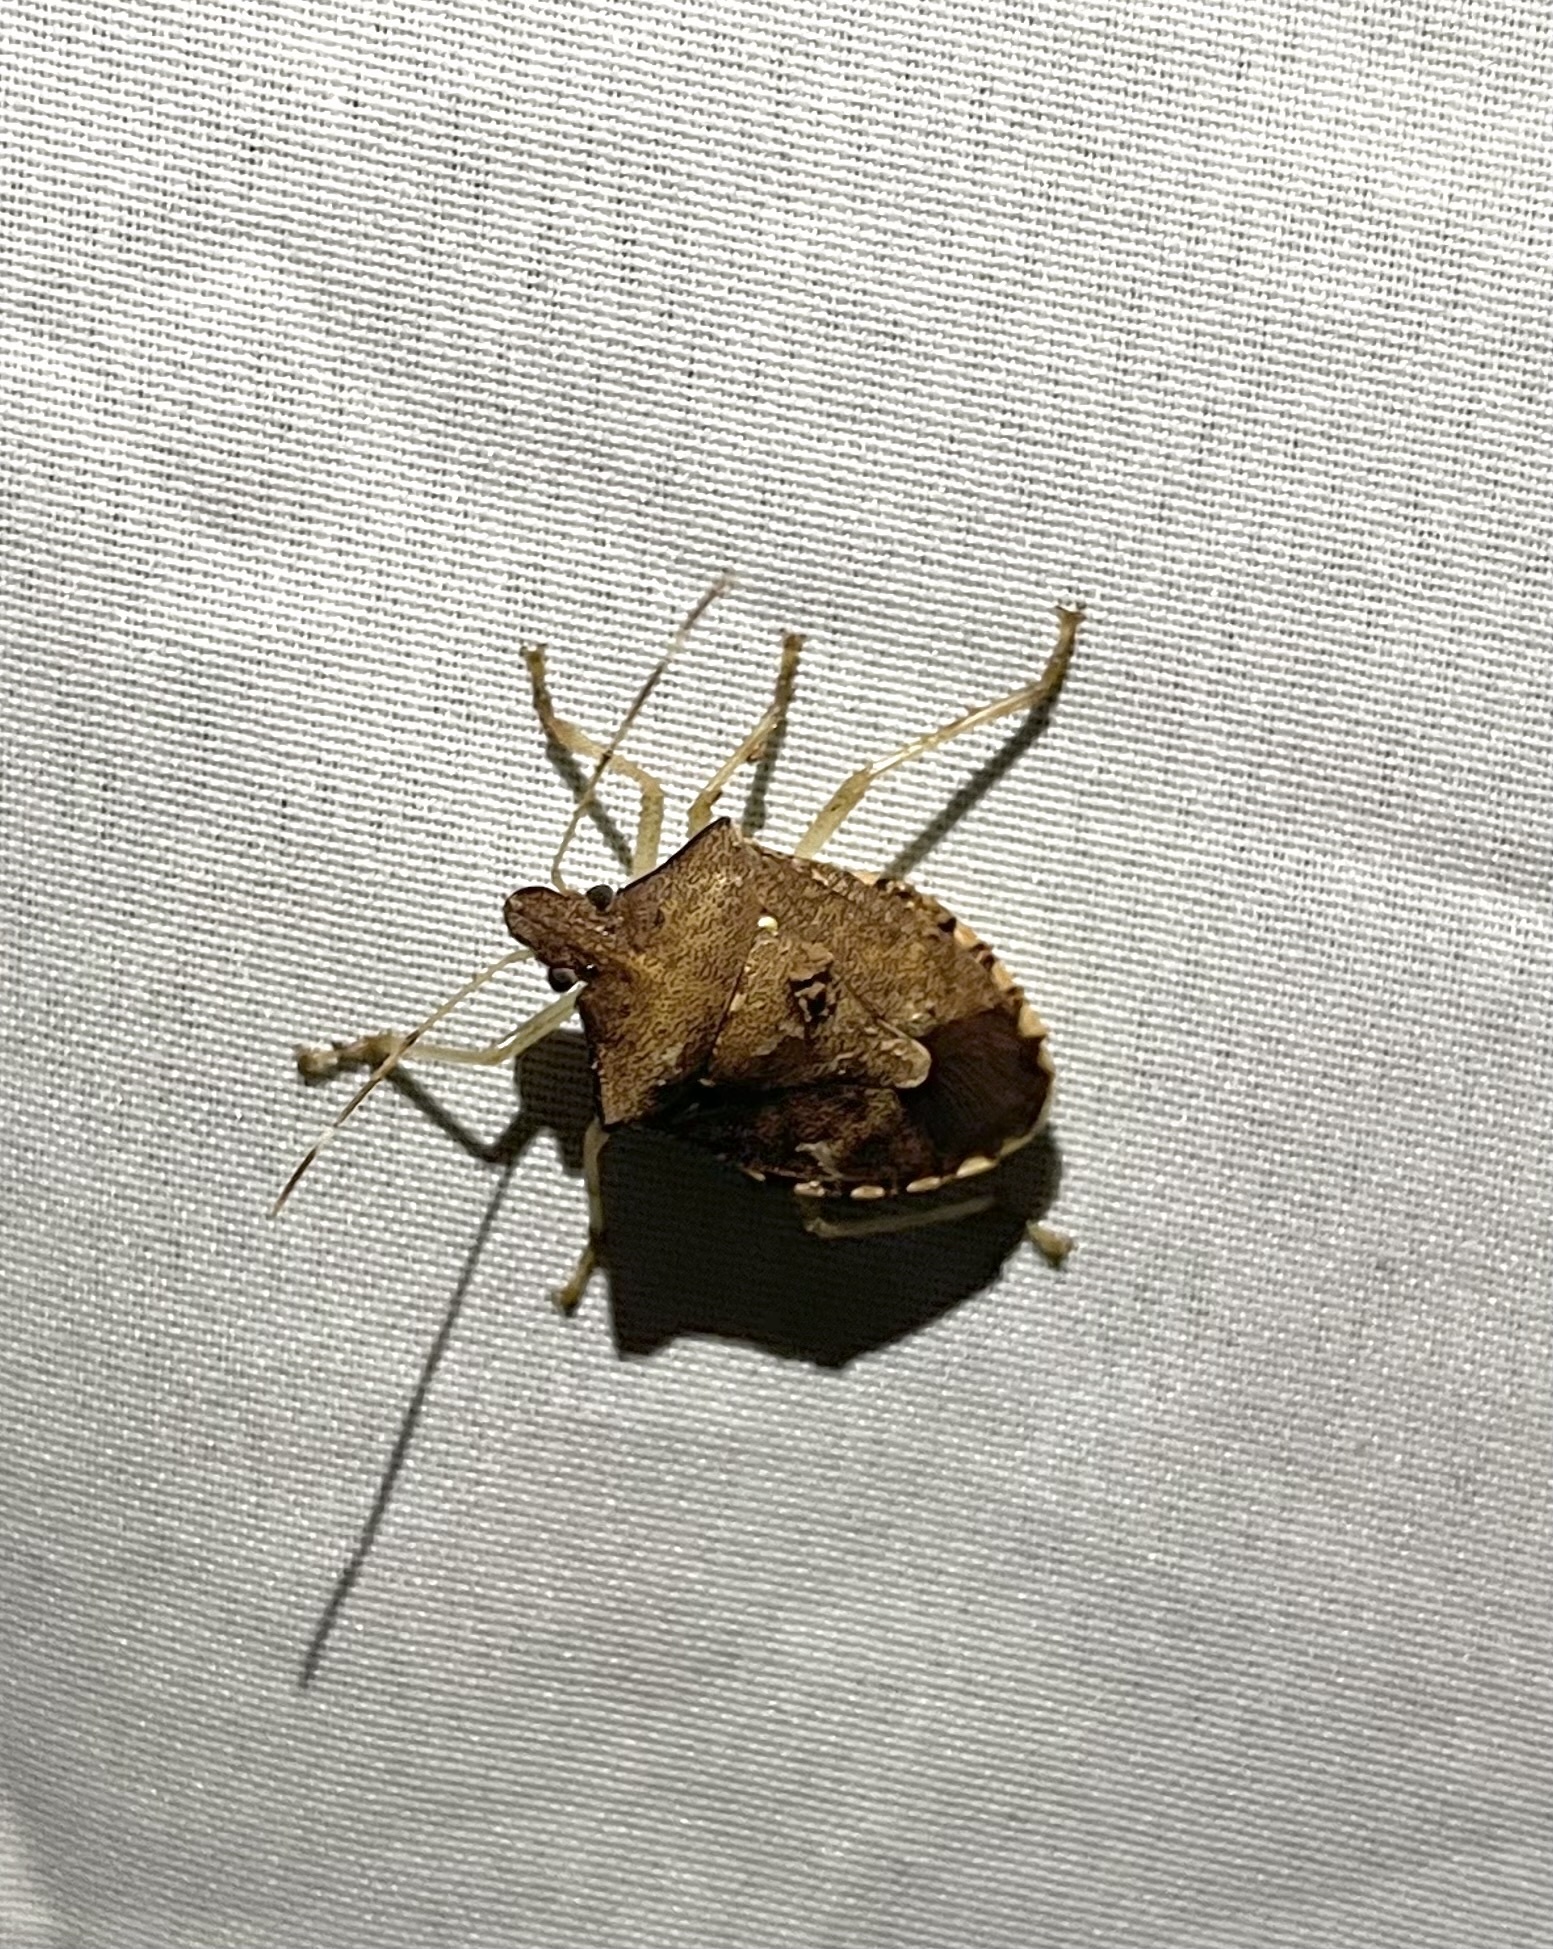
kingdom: Animalia
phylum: Arthropoda
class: Insecta
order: Hemiptera
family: Pentatomidae
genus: Halyomorpha
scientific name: Halyomorpha
